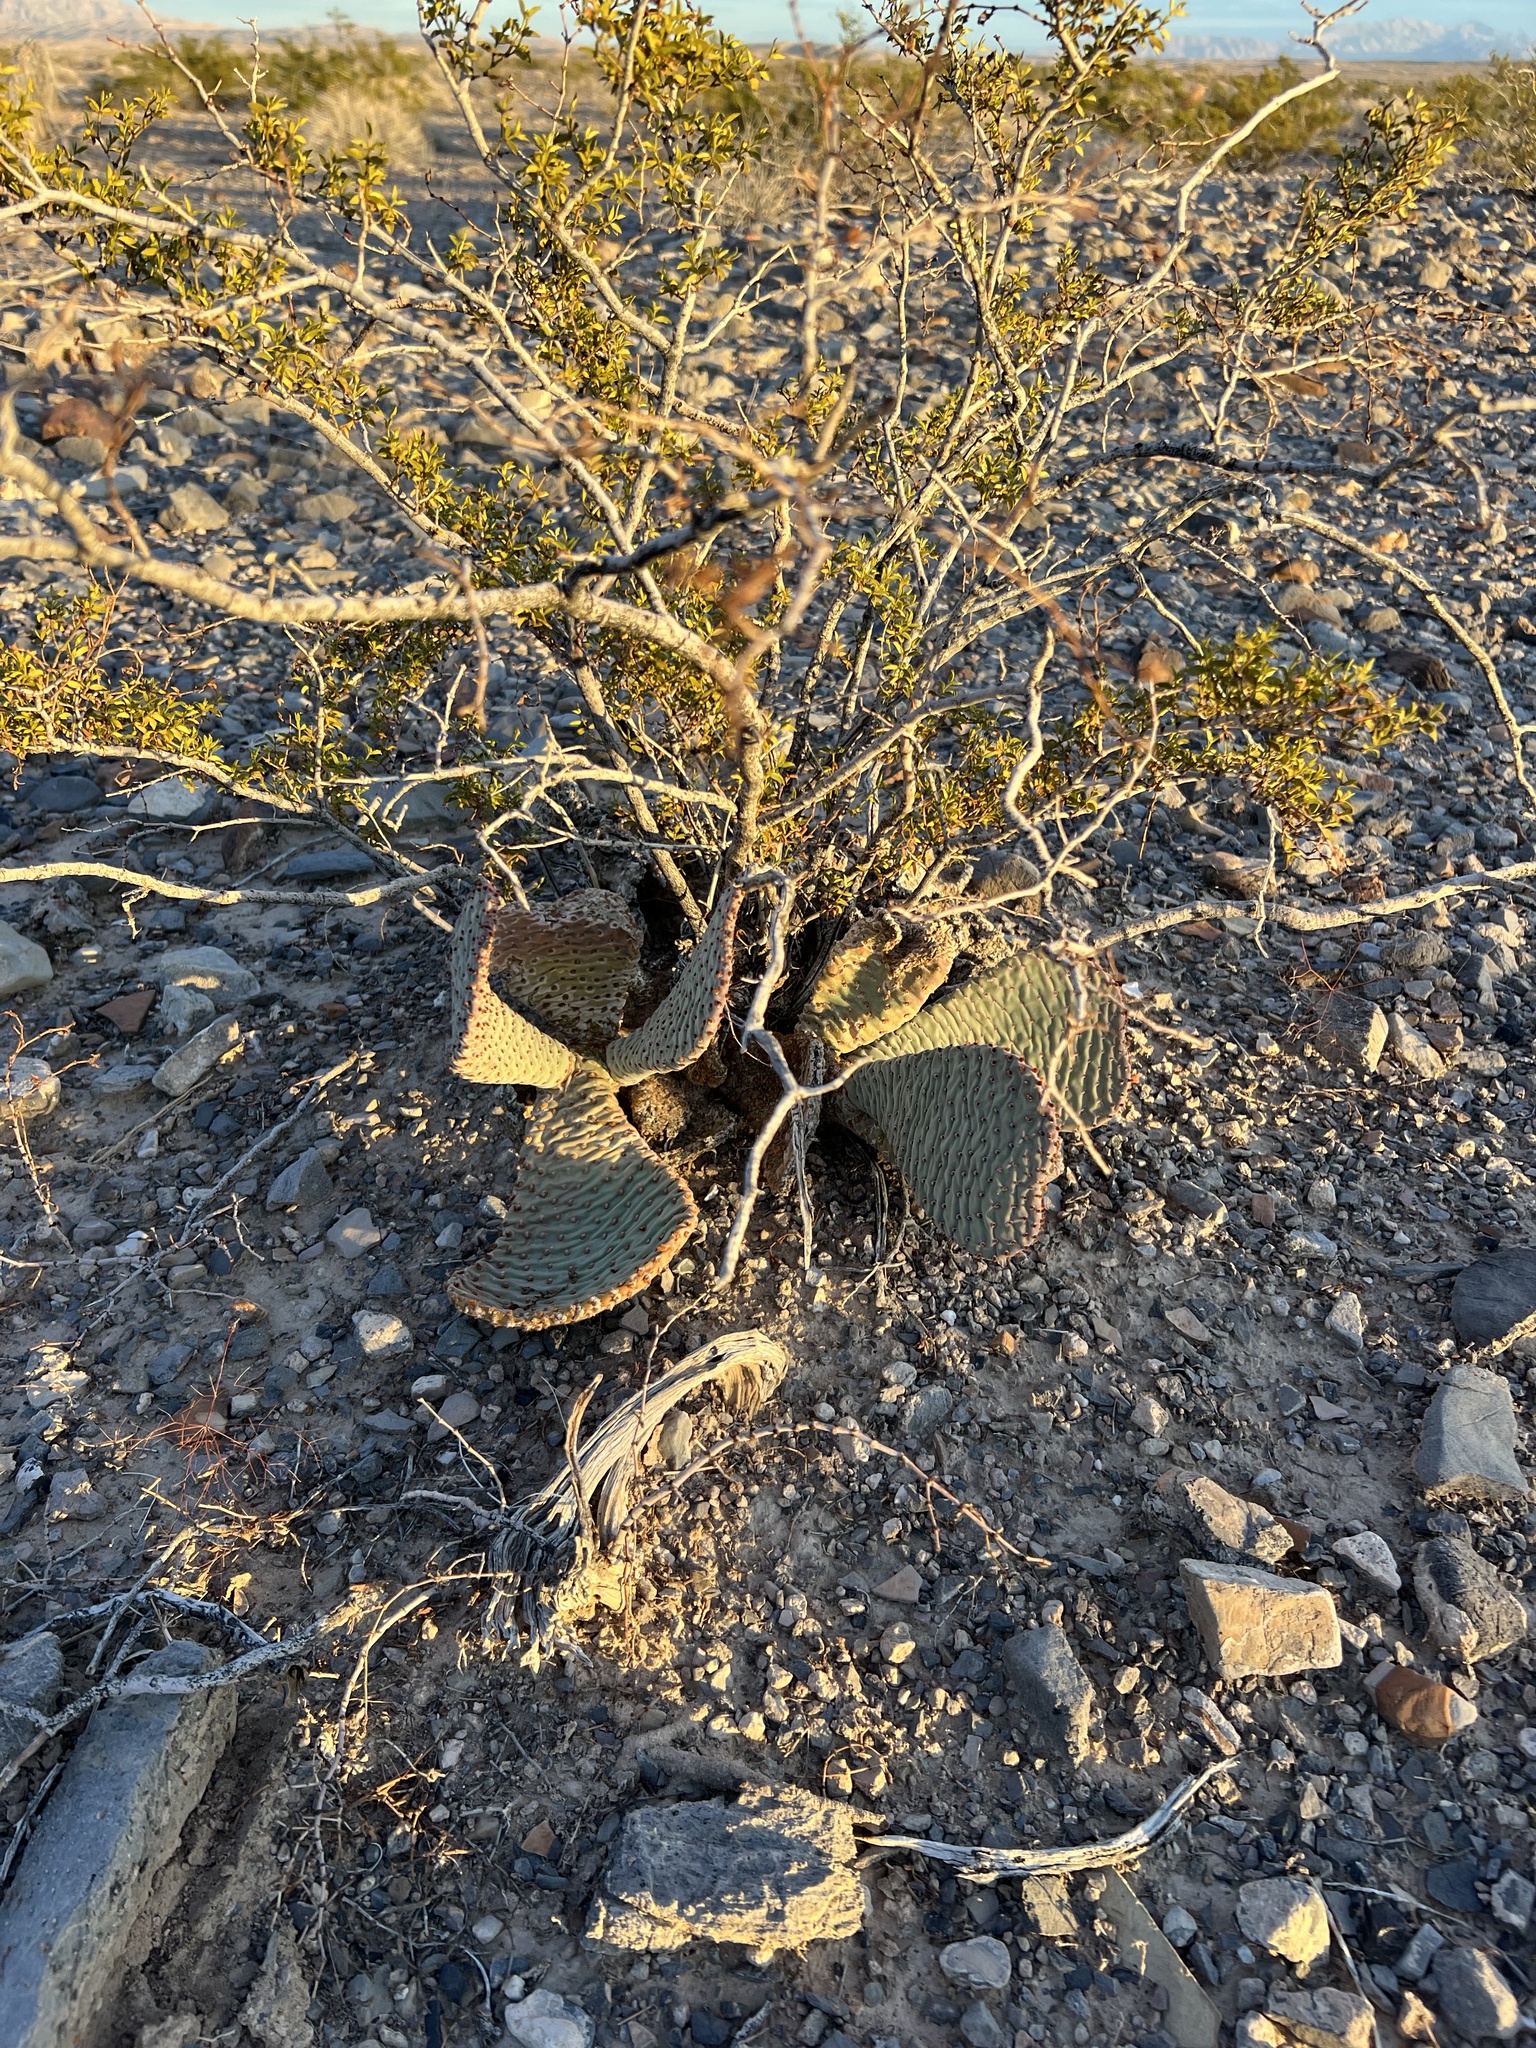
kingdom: Plantae
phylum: Tracheophyta
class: Magnoliopsida
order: Caryophyllales
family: Cactaceae
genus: Opuntia
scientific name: Opuntia basilaris
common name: Beavertail prickly-pear
